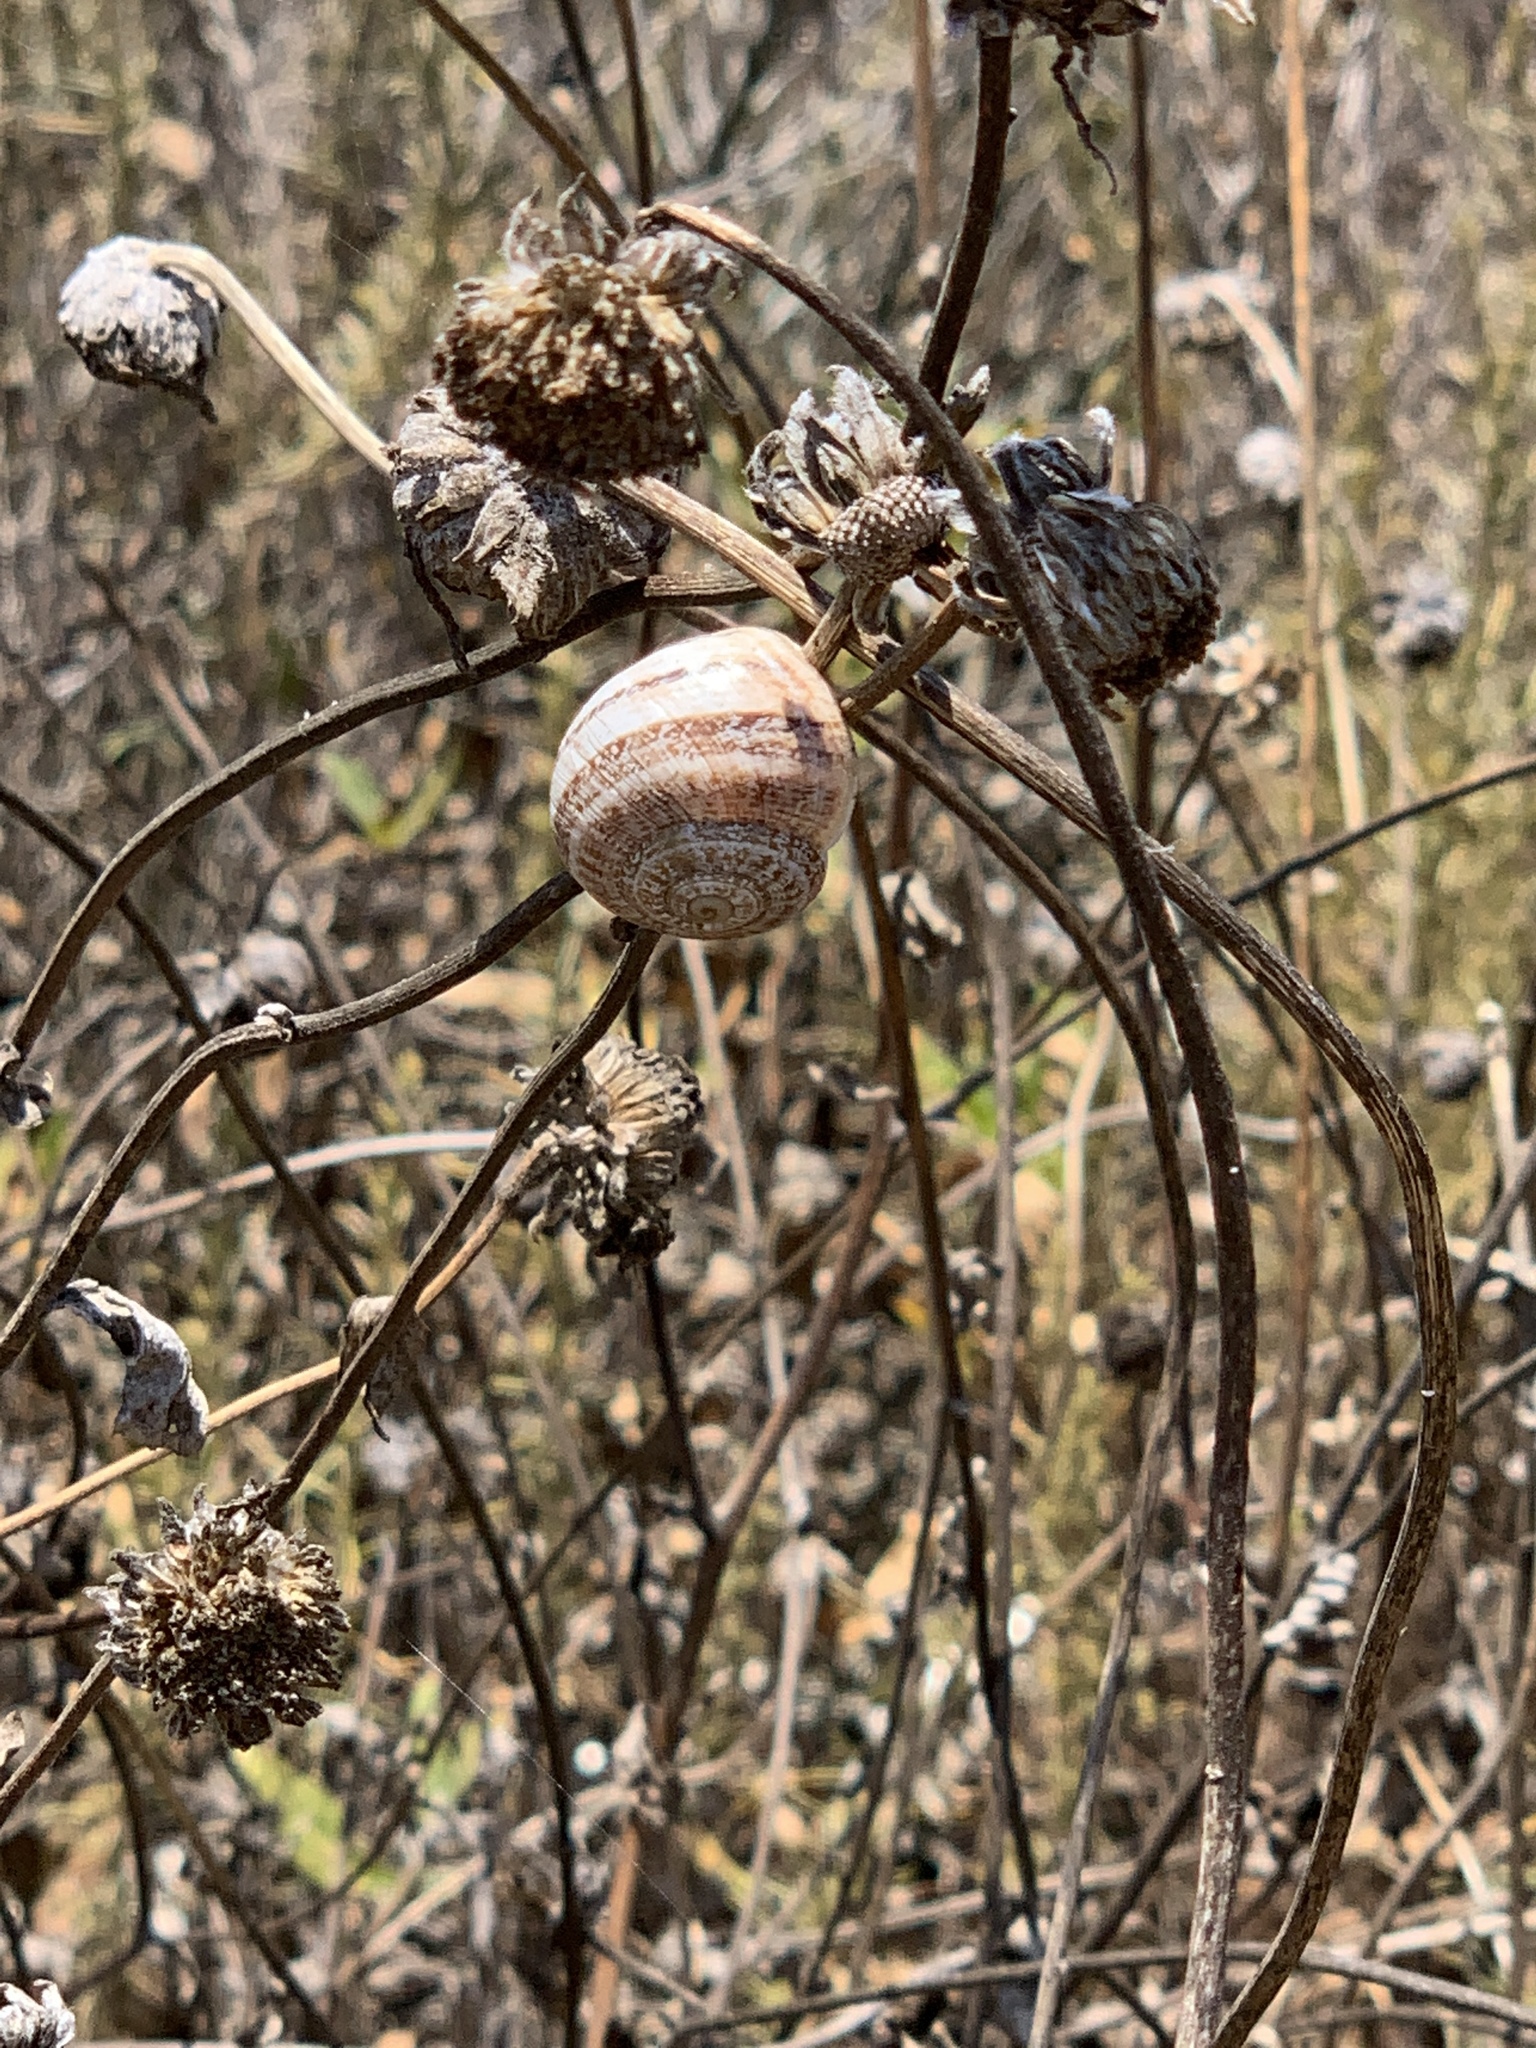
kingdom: Animalia
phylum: Mollusca
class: Gastropoda
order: Stylommatophora
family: Helicidae
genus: Otala
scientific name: Otala lactea
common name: Milk snail
